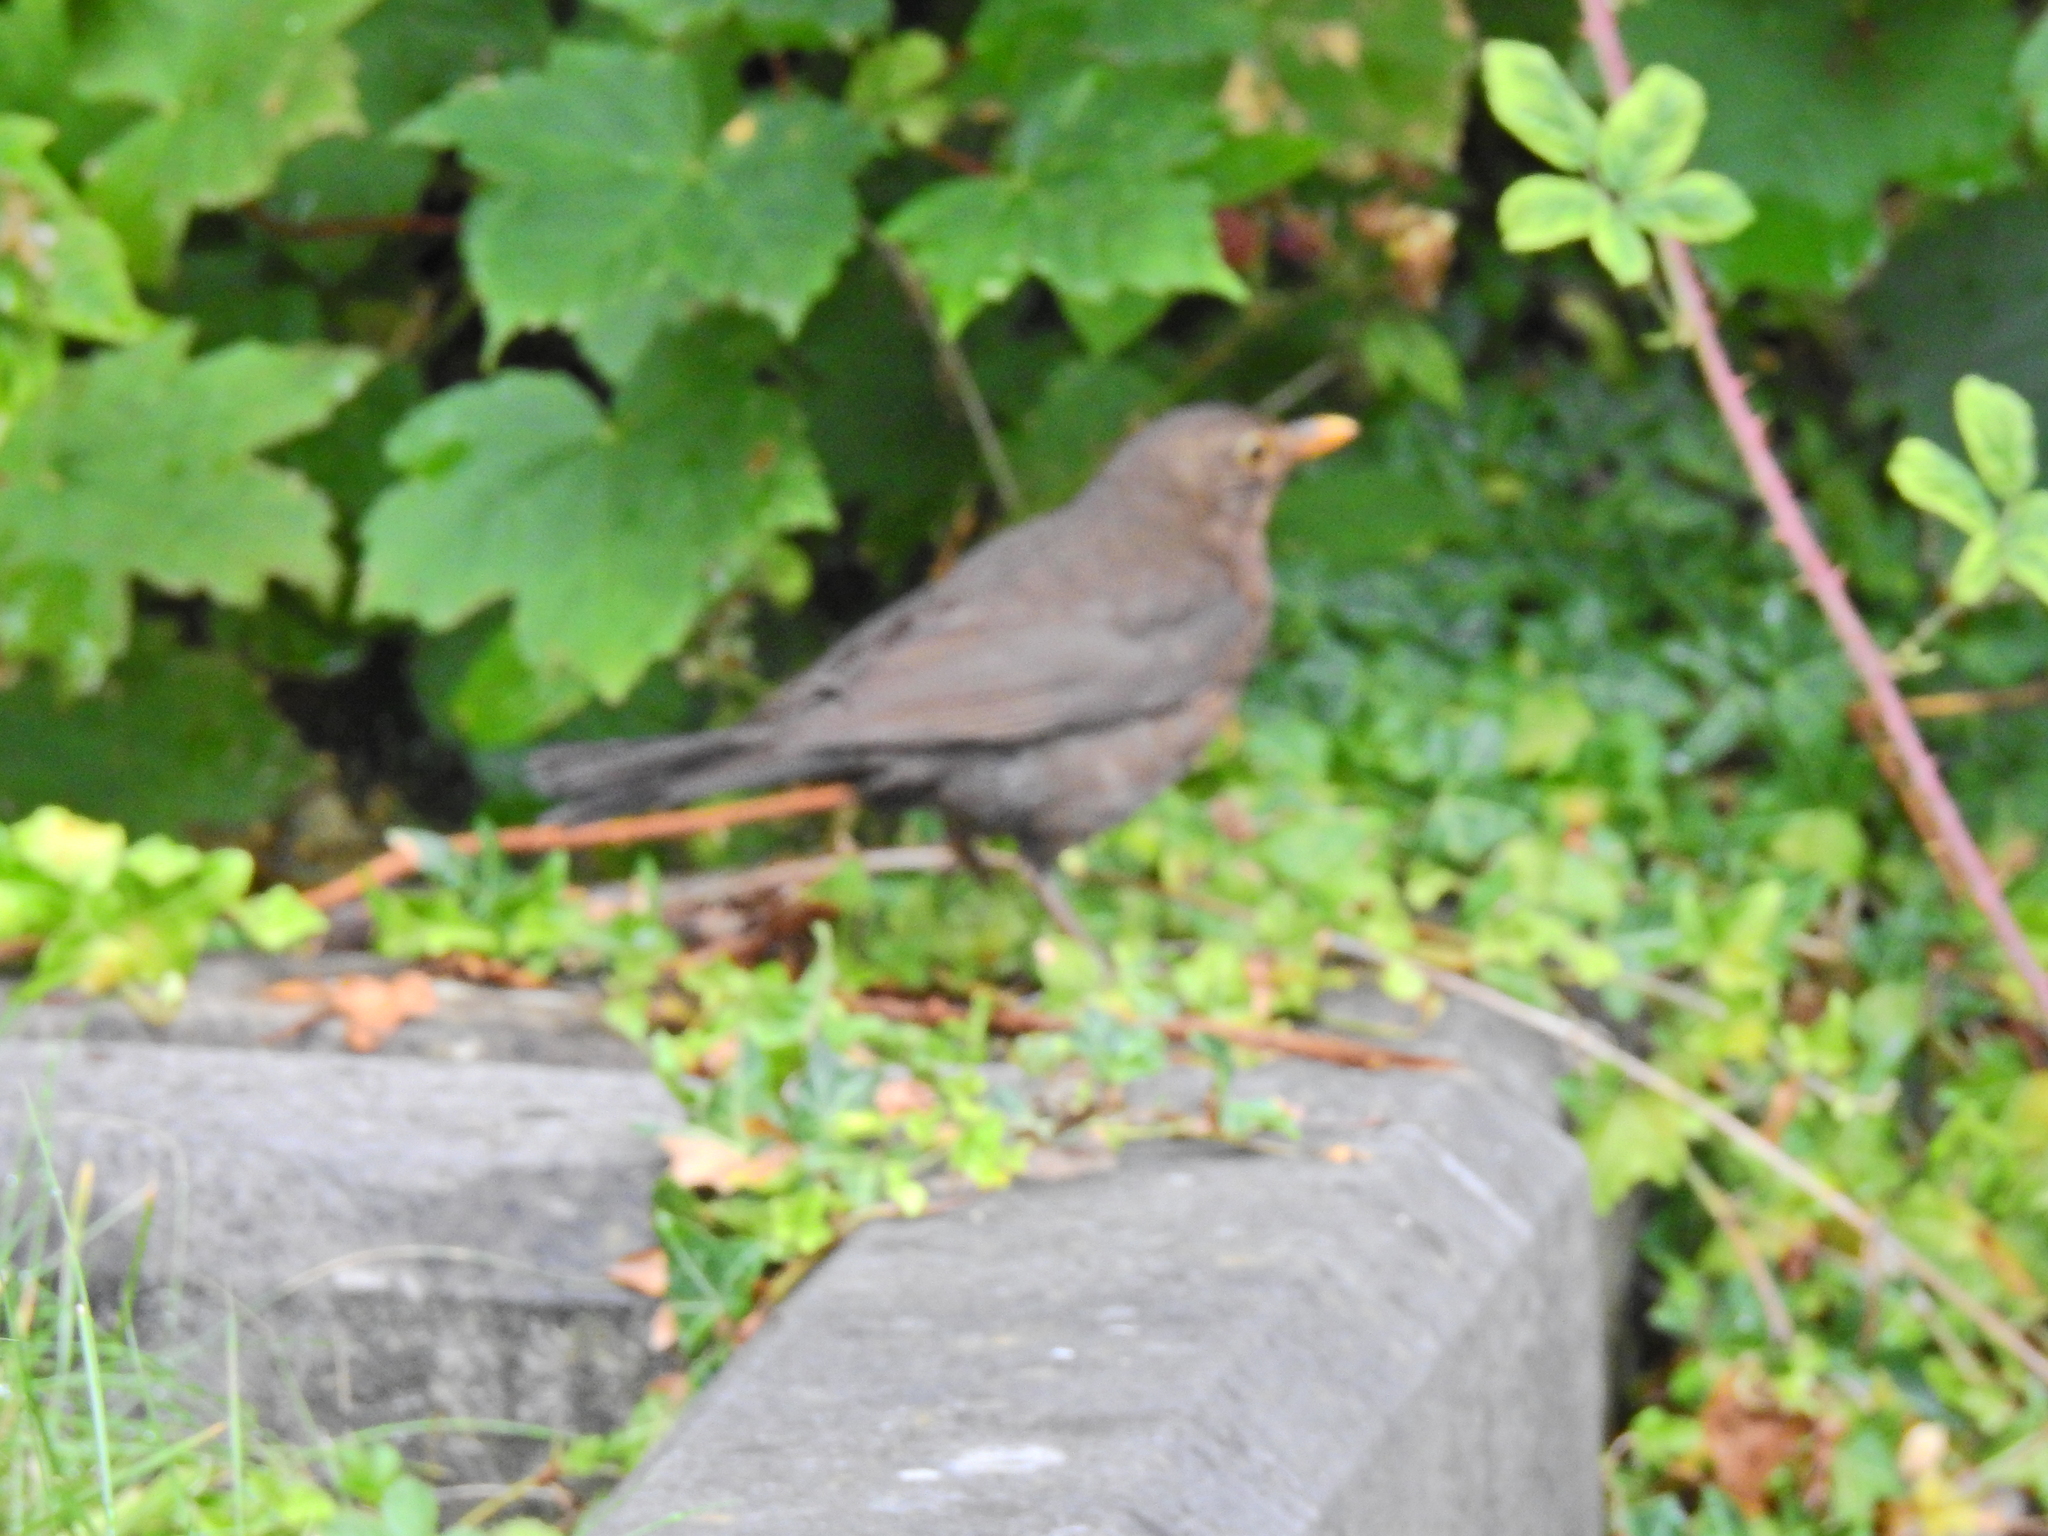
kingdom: Animalia
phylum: Chordata
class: Aves
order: Passeriformes
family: Turdidae
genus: Turdus
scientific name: Turdus merula
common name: Common blackbird
